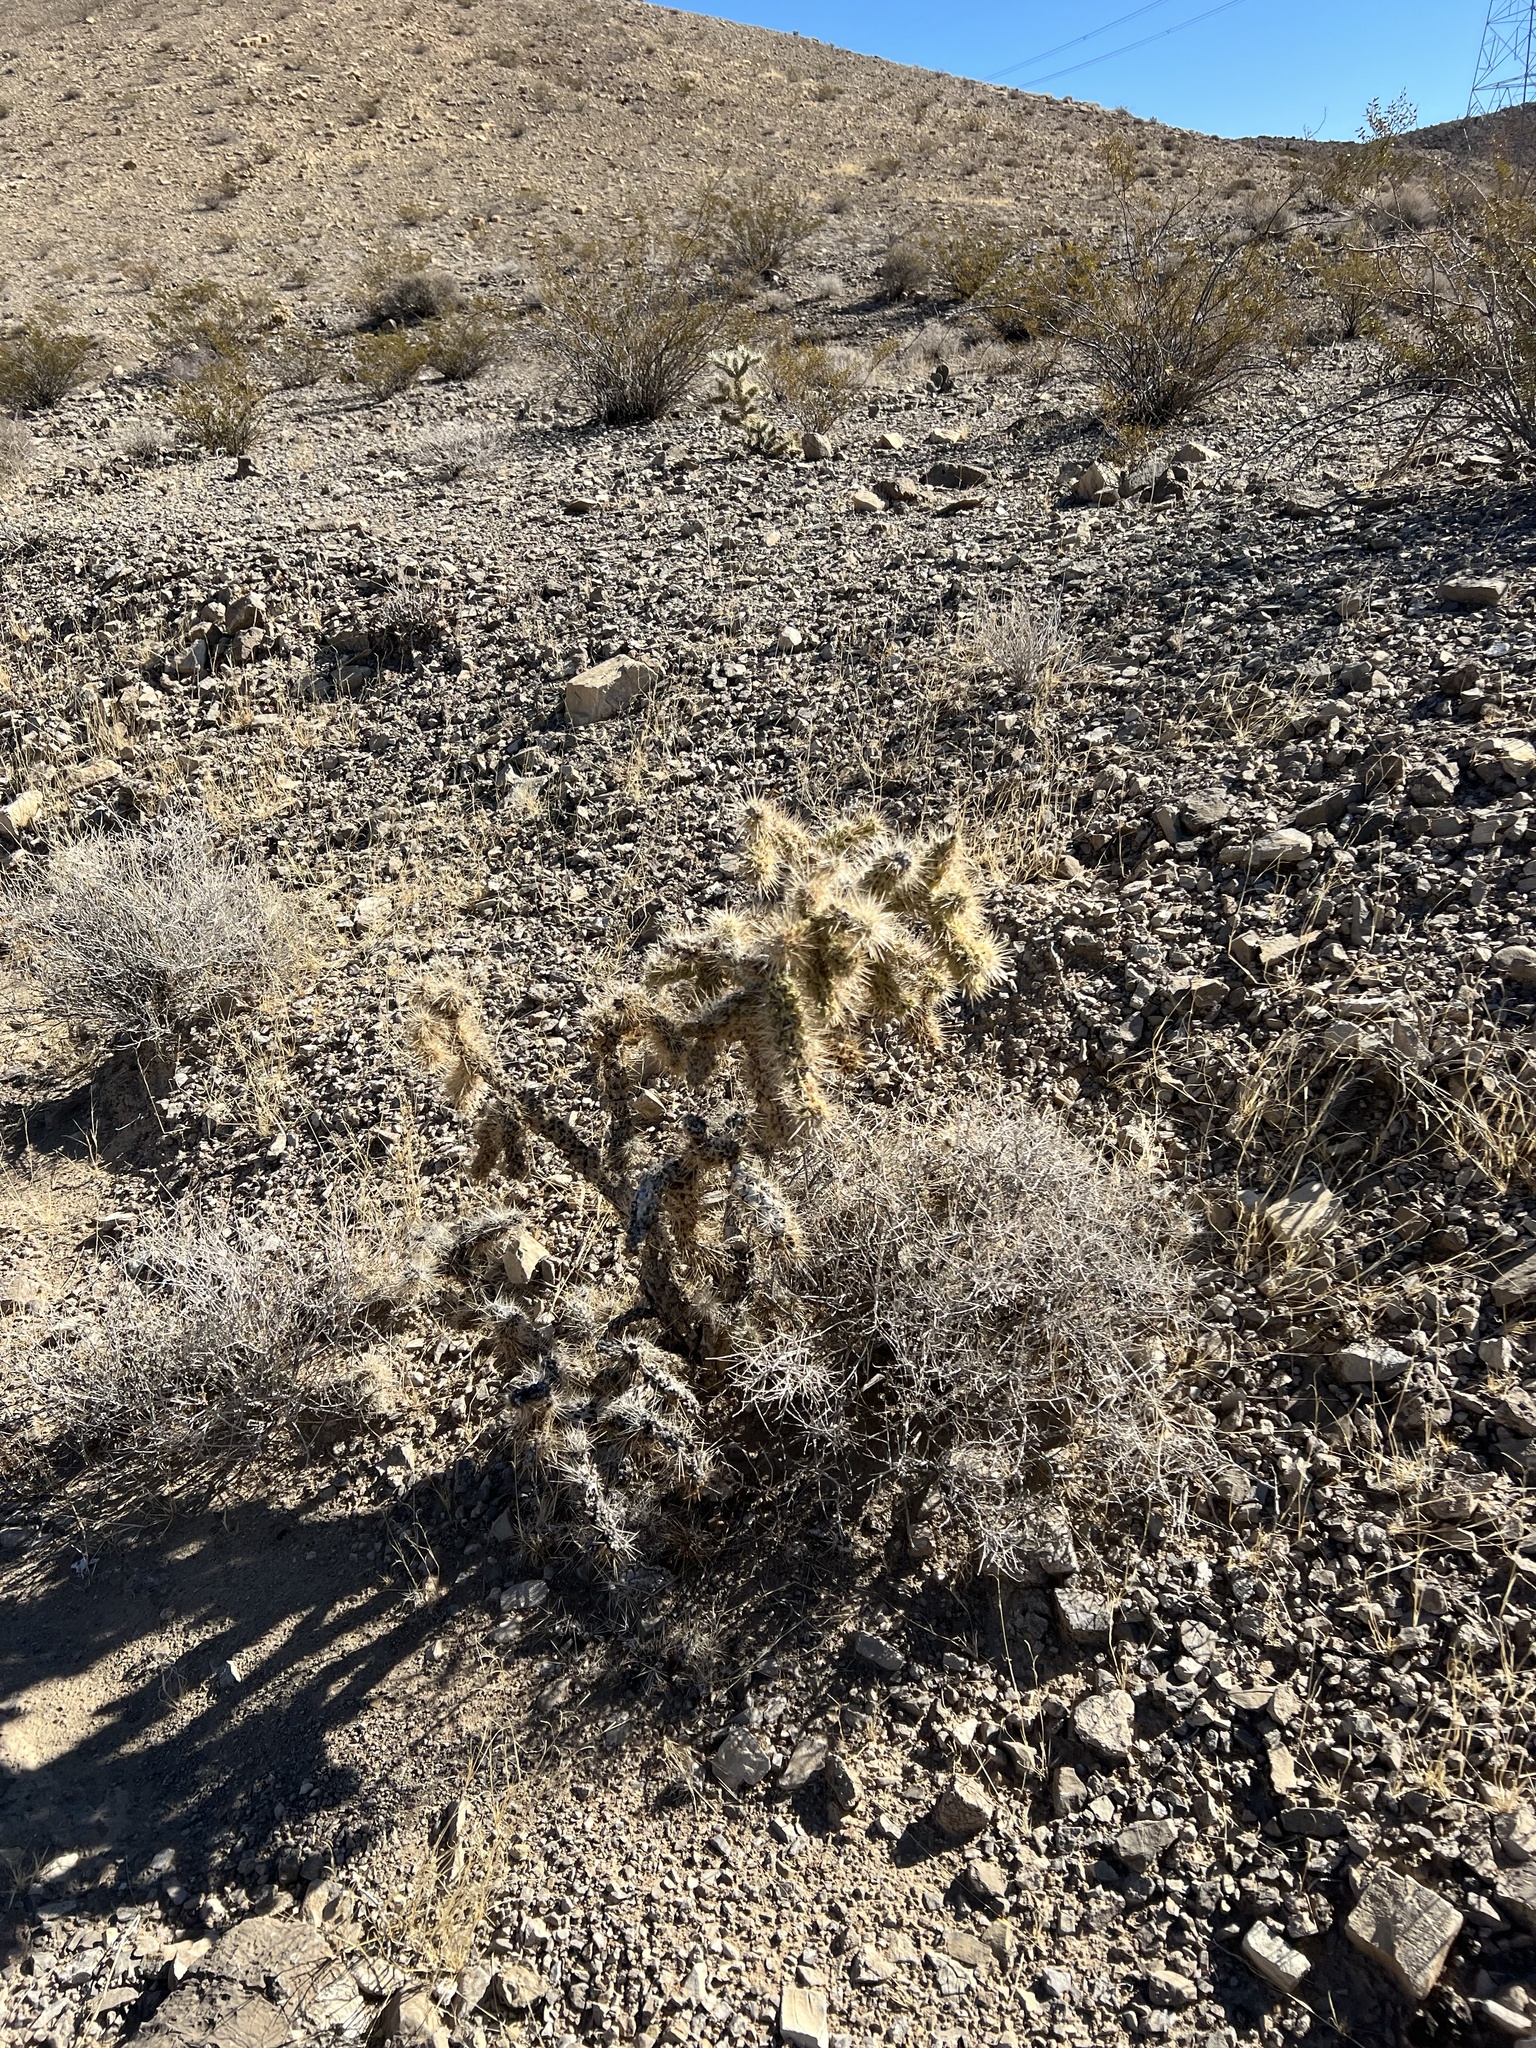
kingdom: Plantae
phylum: Tracheophyta
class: Magnoliopsida
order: Caryophyllales
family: Cactaceae
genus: Cylindropuntia
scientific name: Cylindropuntia echinocarpa
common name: Ground cholla
